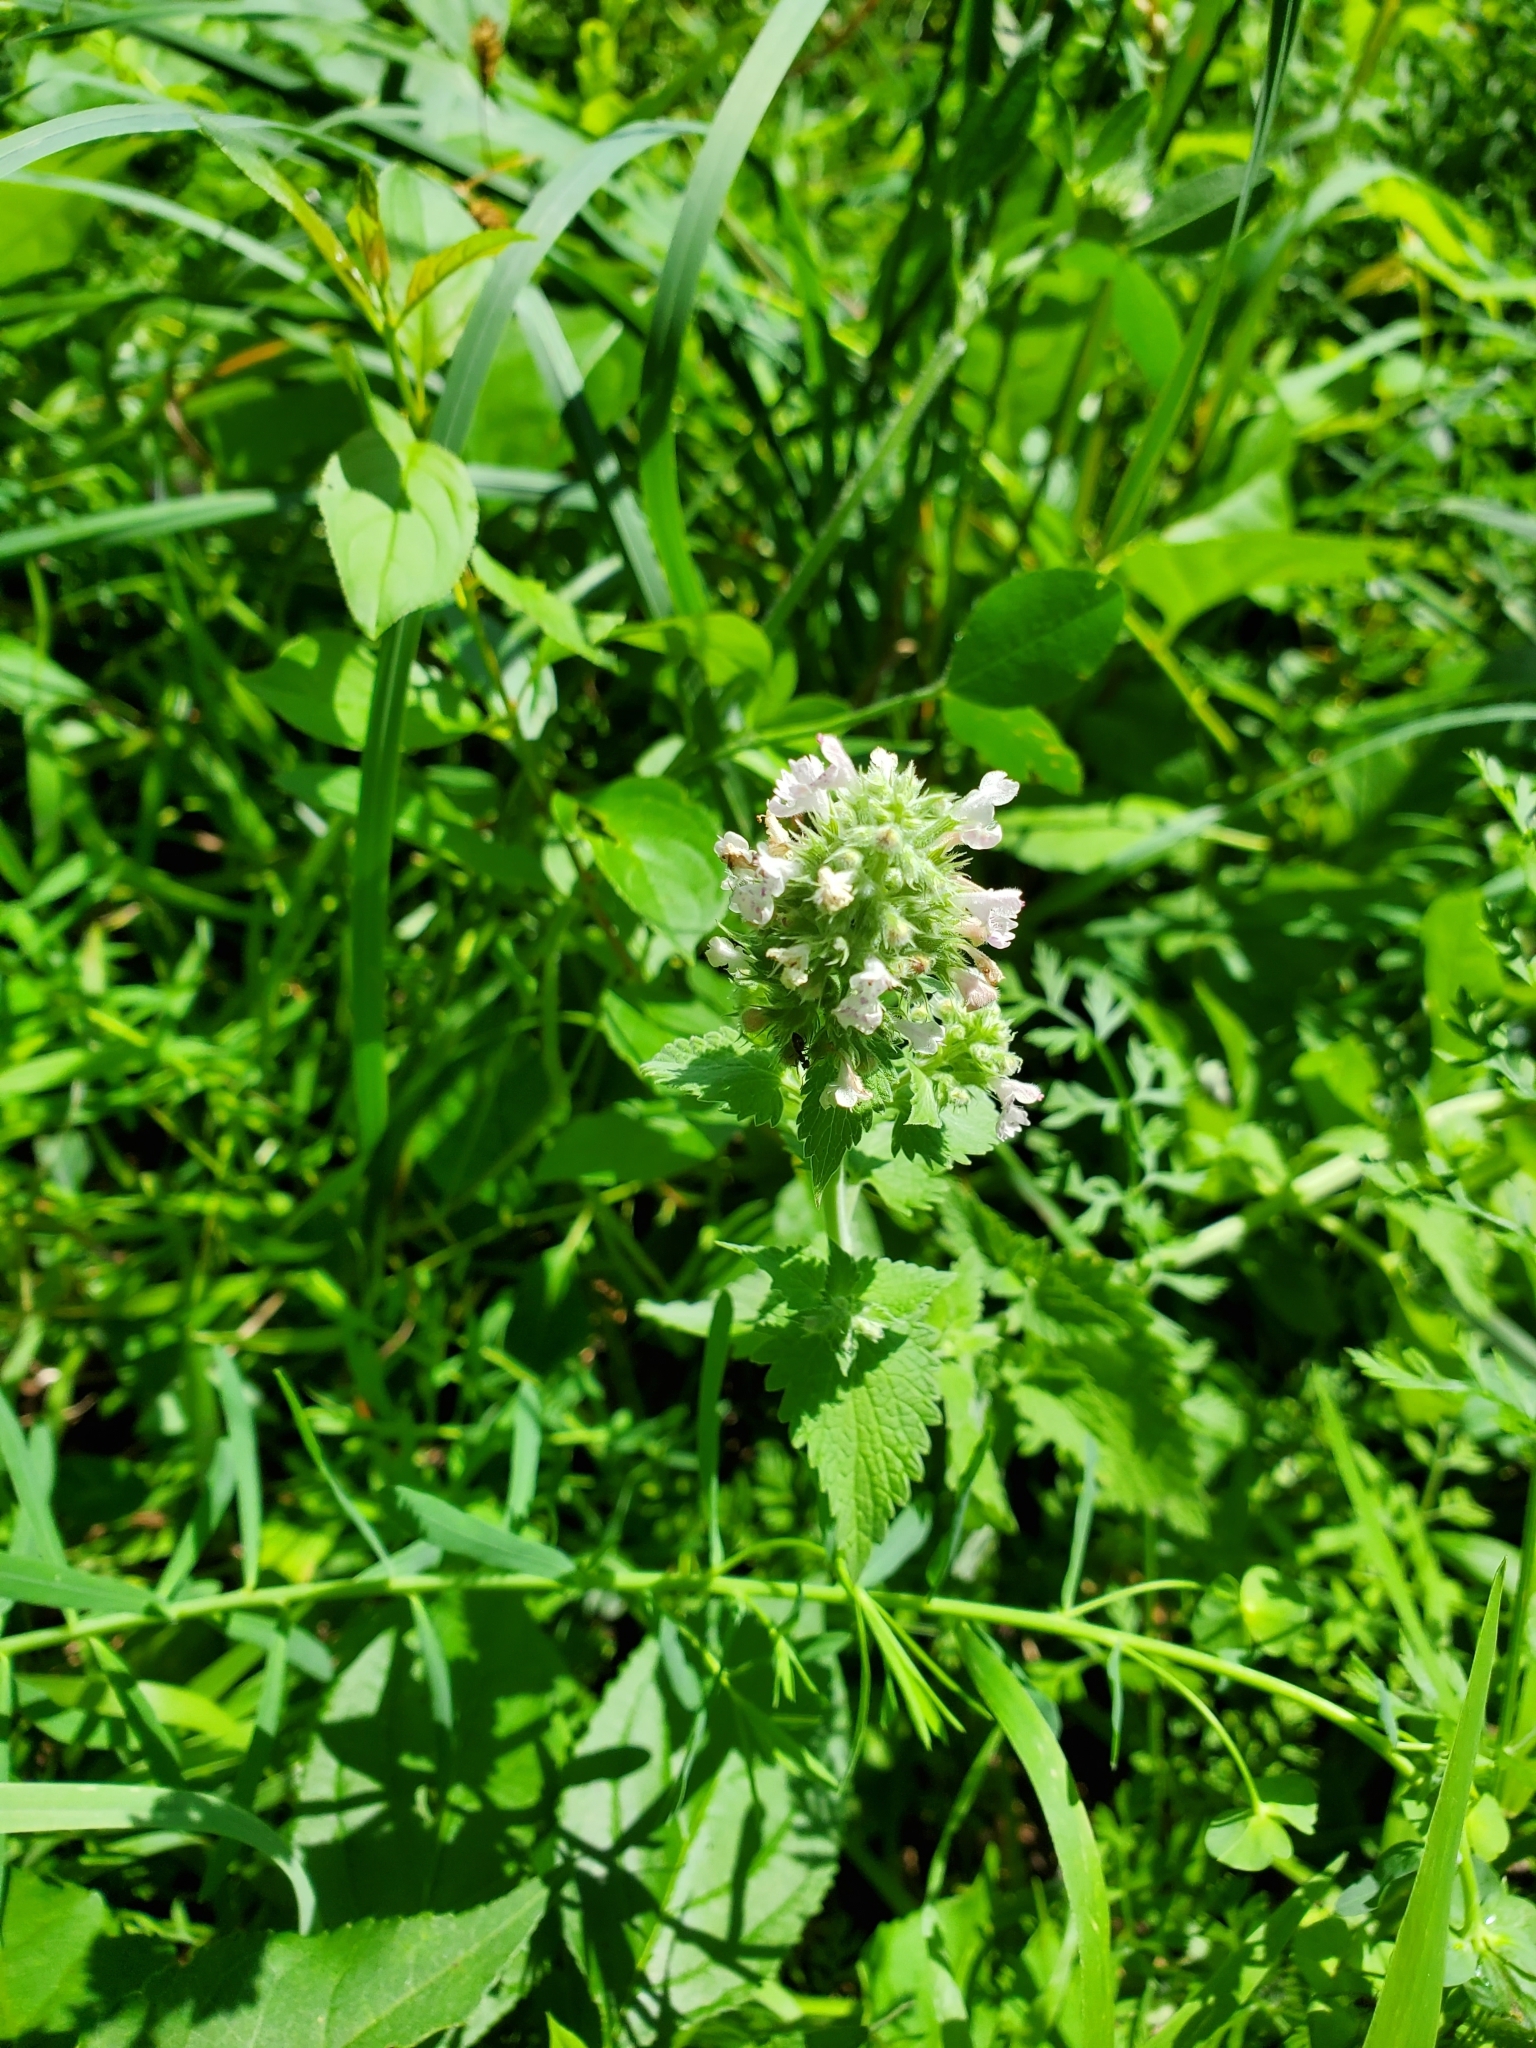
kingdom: Plantae
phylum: Tracheophyta
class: Magnoliopsida
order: Lamiales
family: Lamiaceae
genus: Nepeta
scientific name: Nepeta cataria
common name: Catnip
